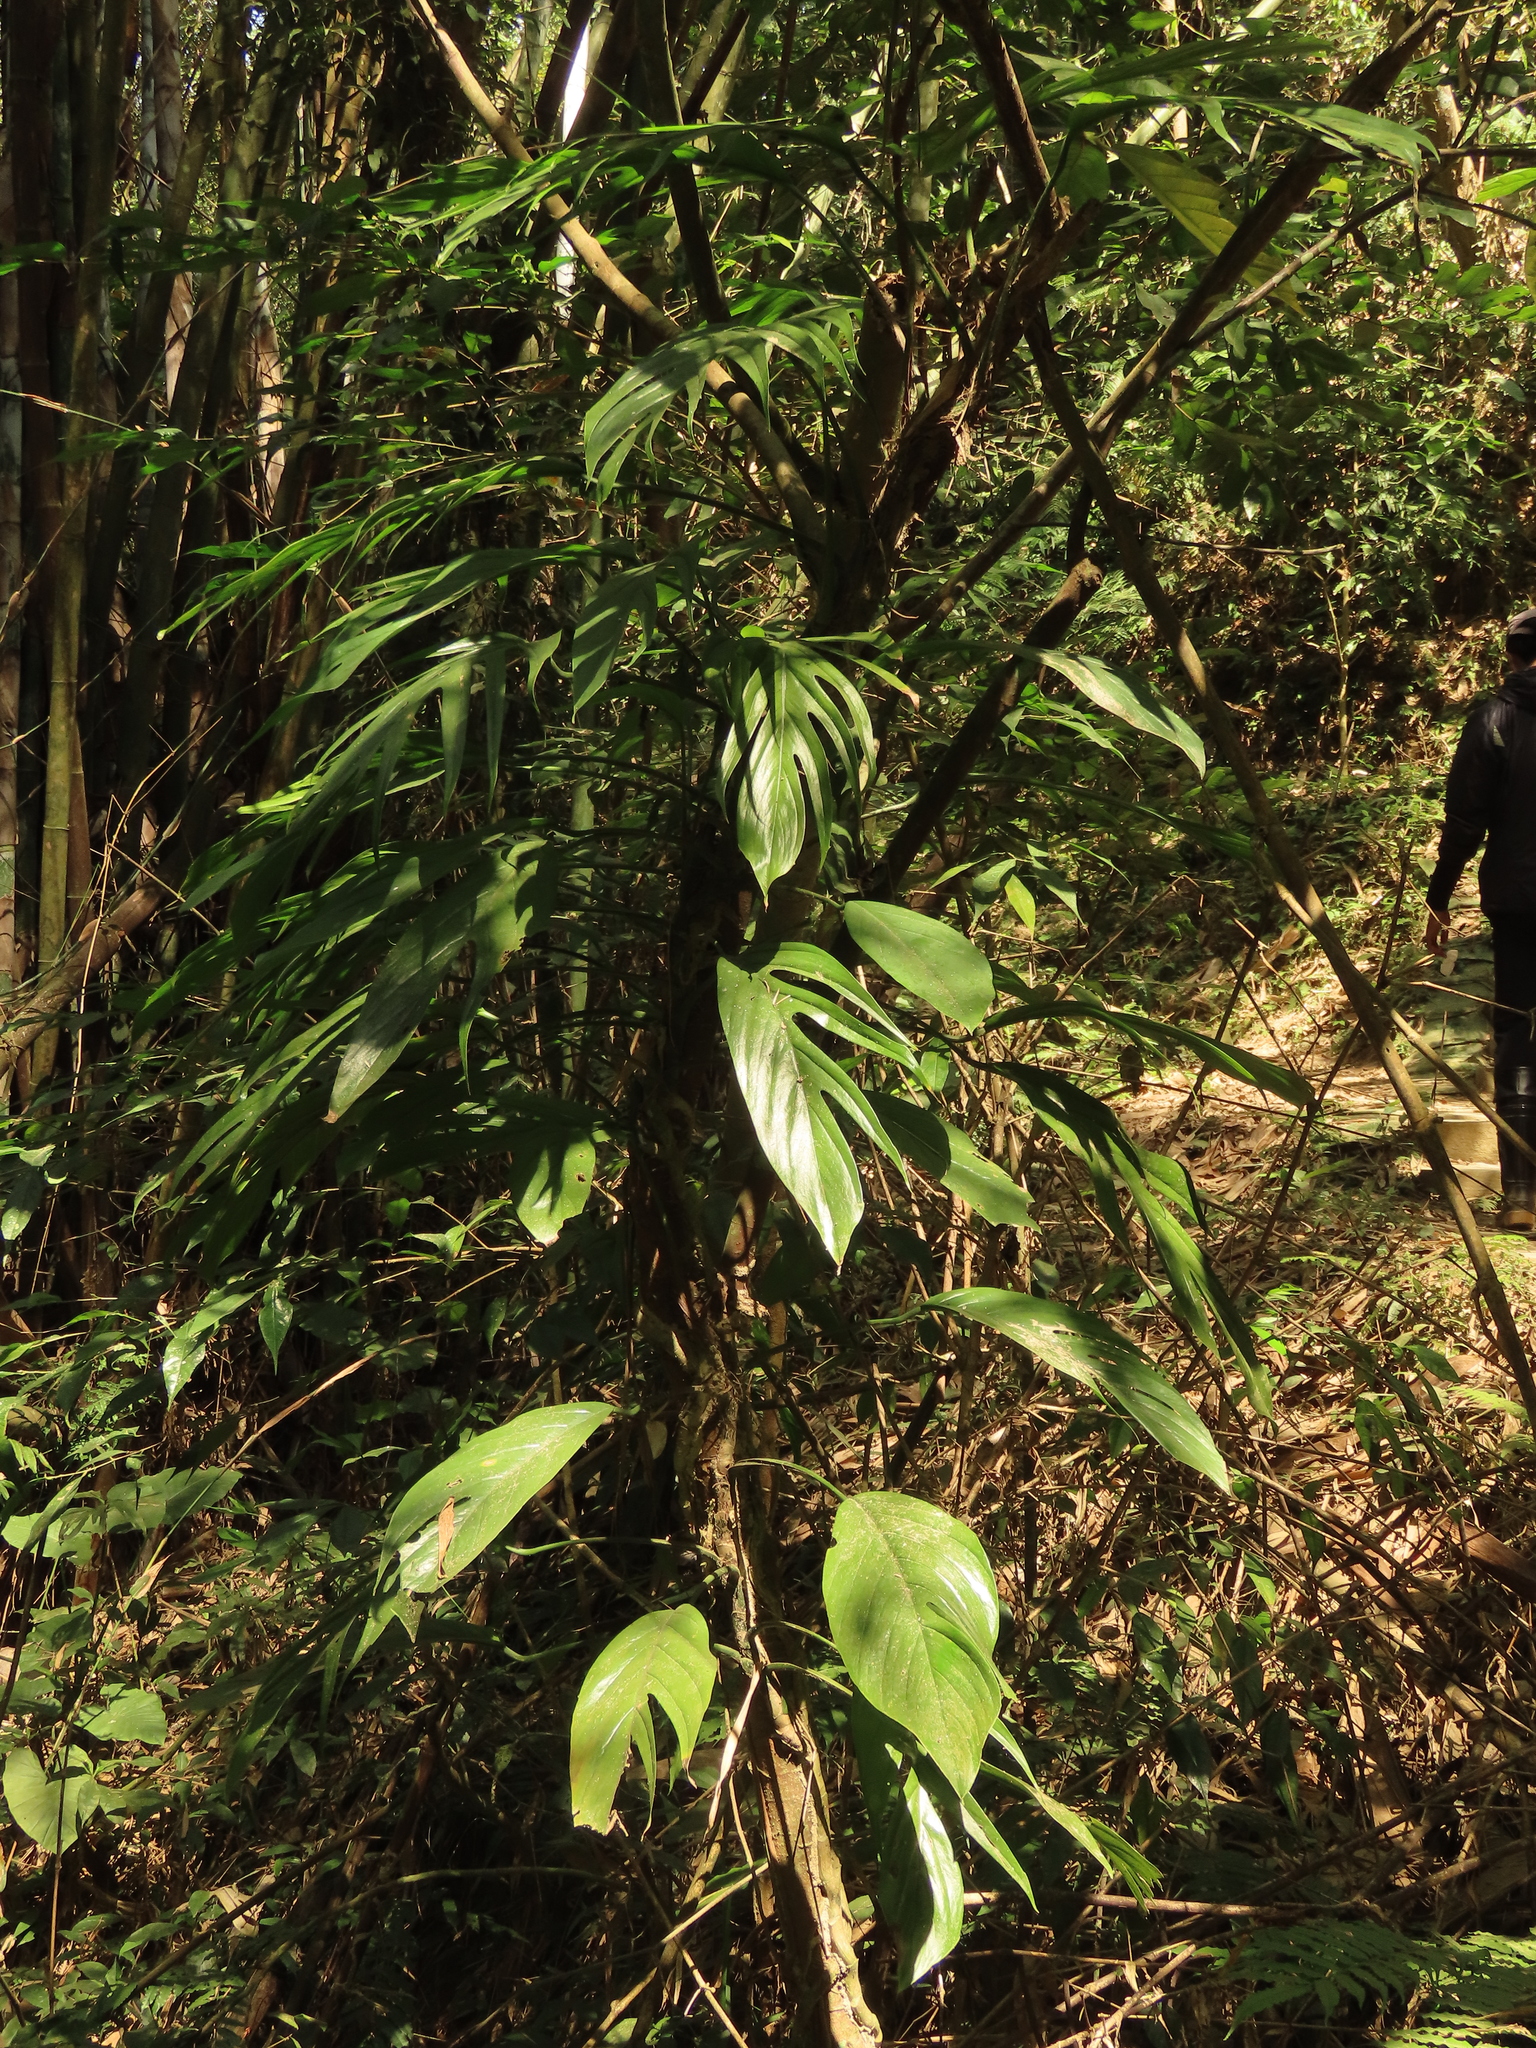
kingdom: Plantae
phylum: Tracheophyta
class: Liliopsida
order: Alismatales
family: Araceae
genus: Epipremnum
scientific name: Epipremnum pinnatum
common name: Centipede tongavine
